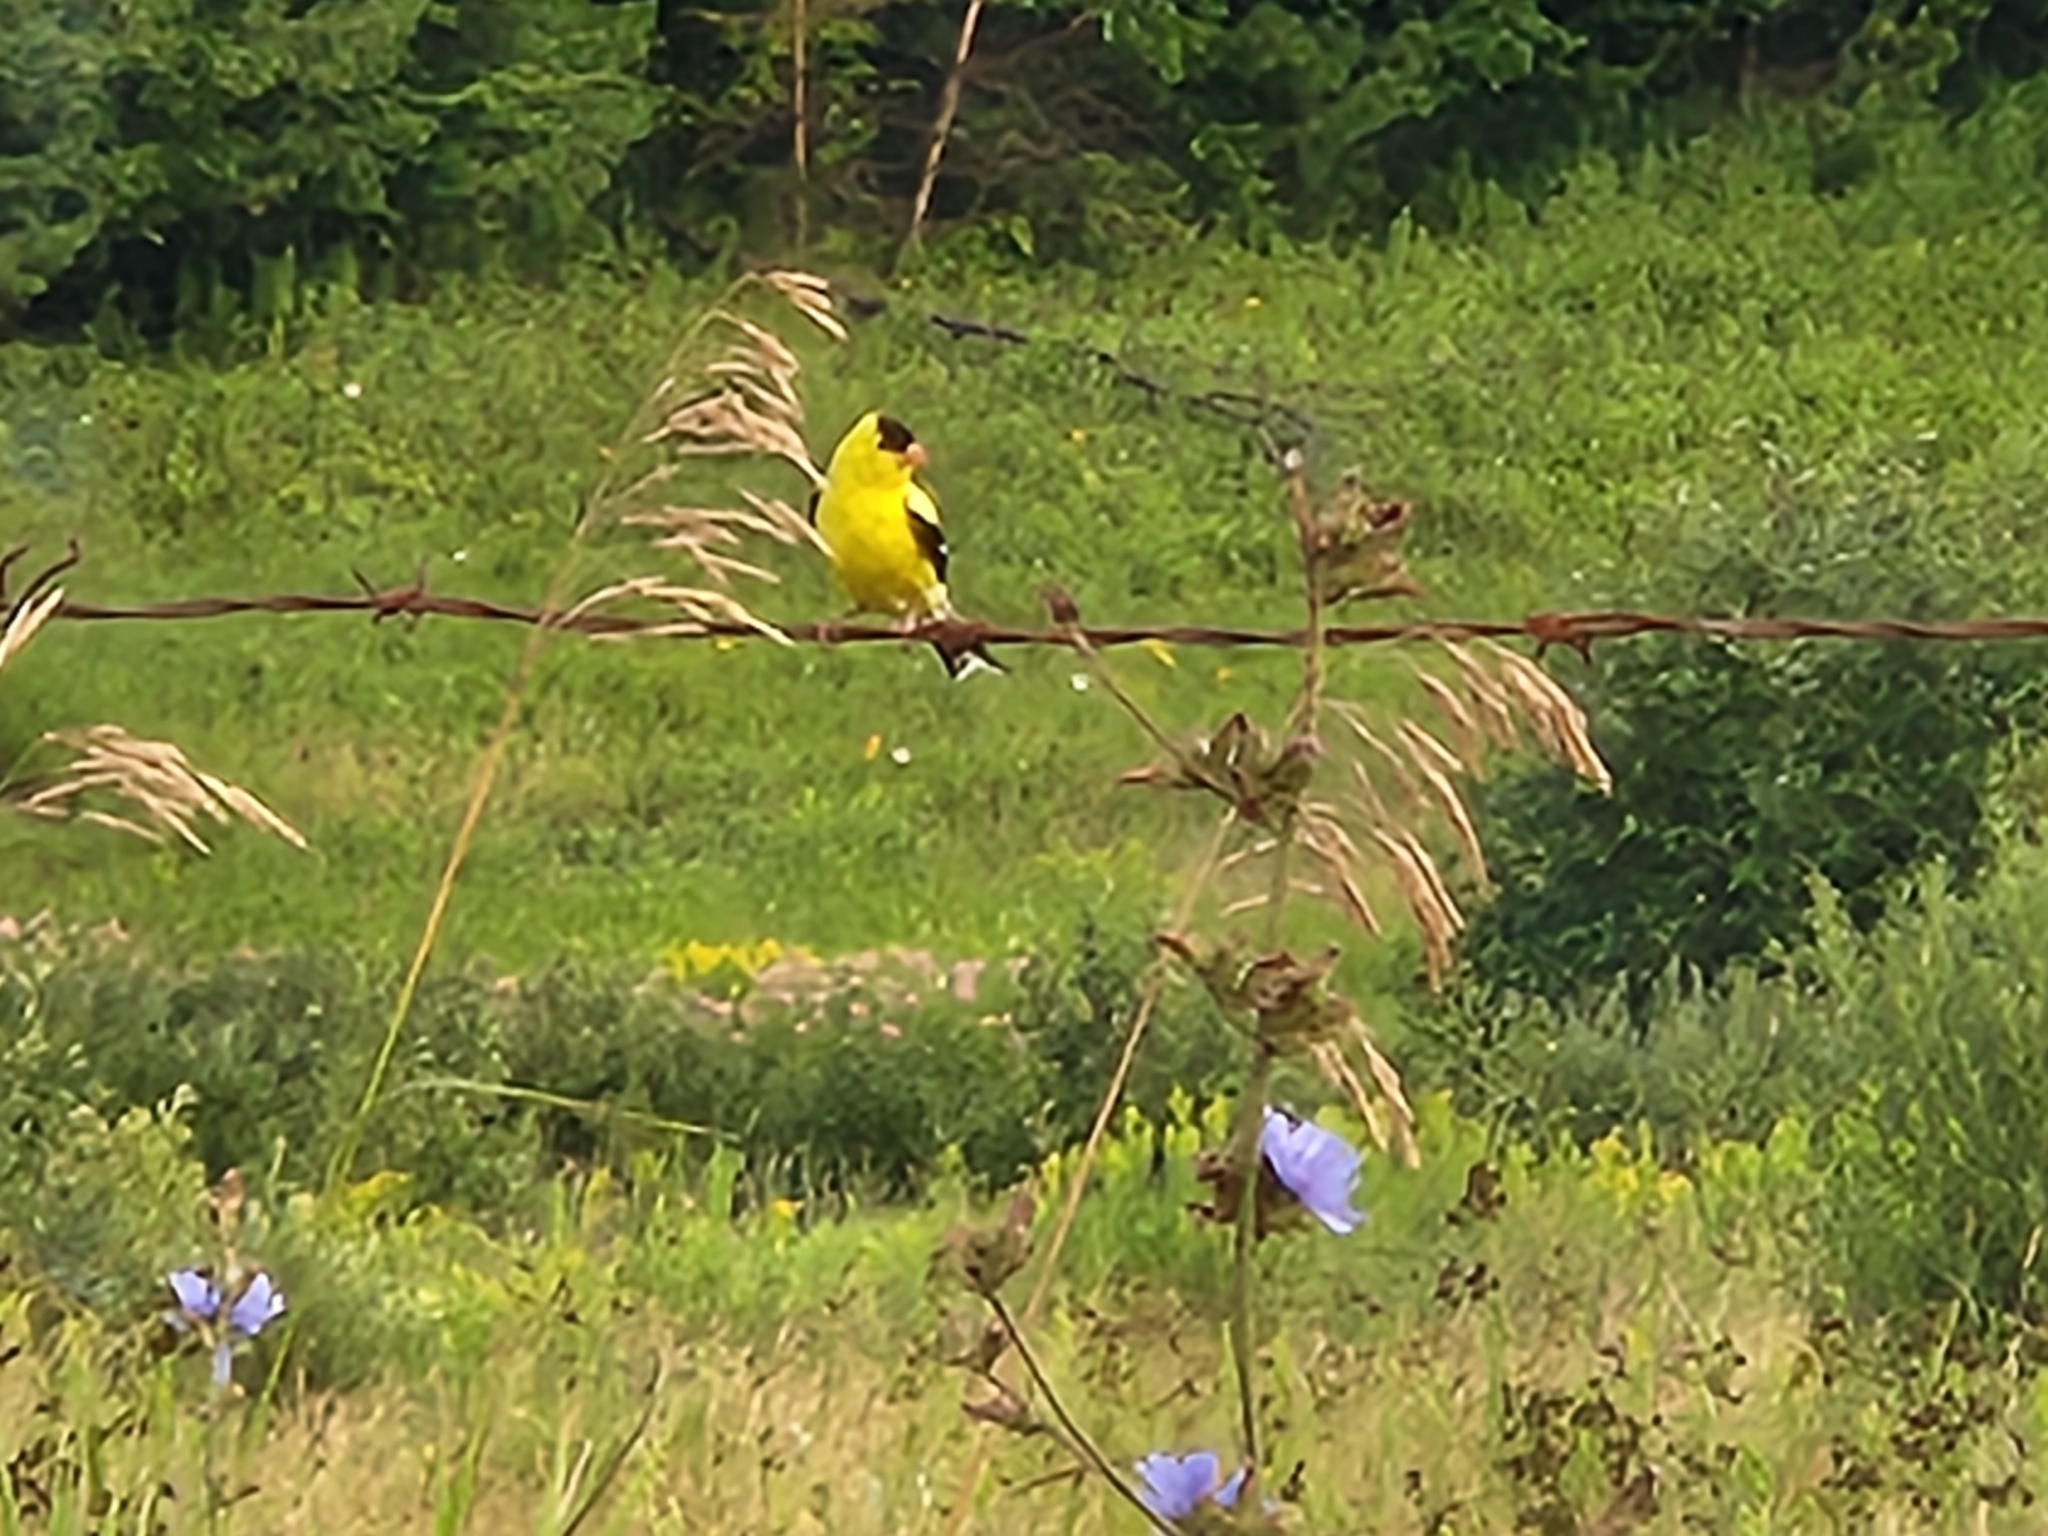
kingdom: Animalia
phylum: Chordata
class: Aves
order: Passeriformes
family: Fringillidae
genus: Spinus
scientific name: Spinus tristis
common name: American goldfinch
